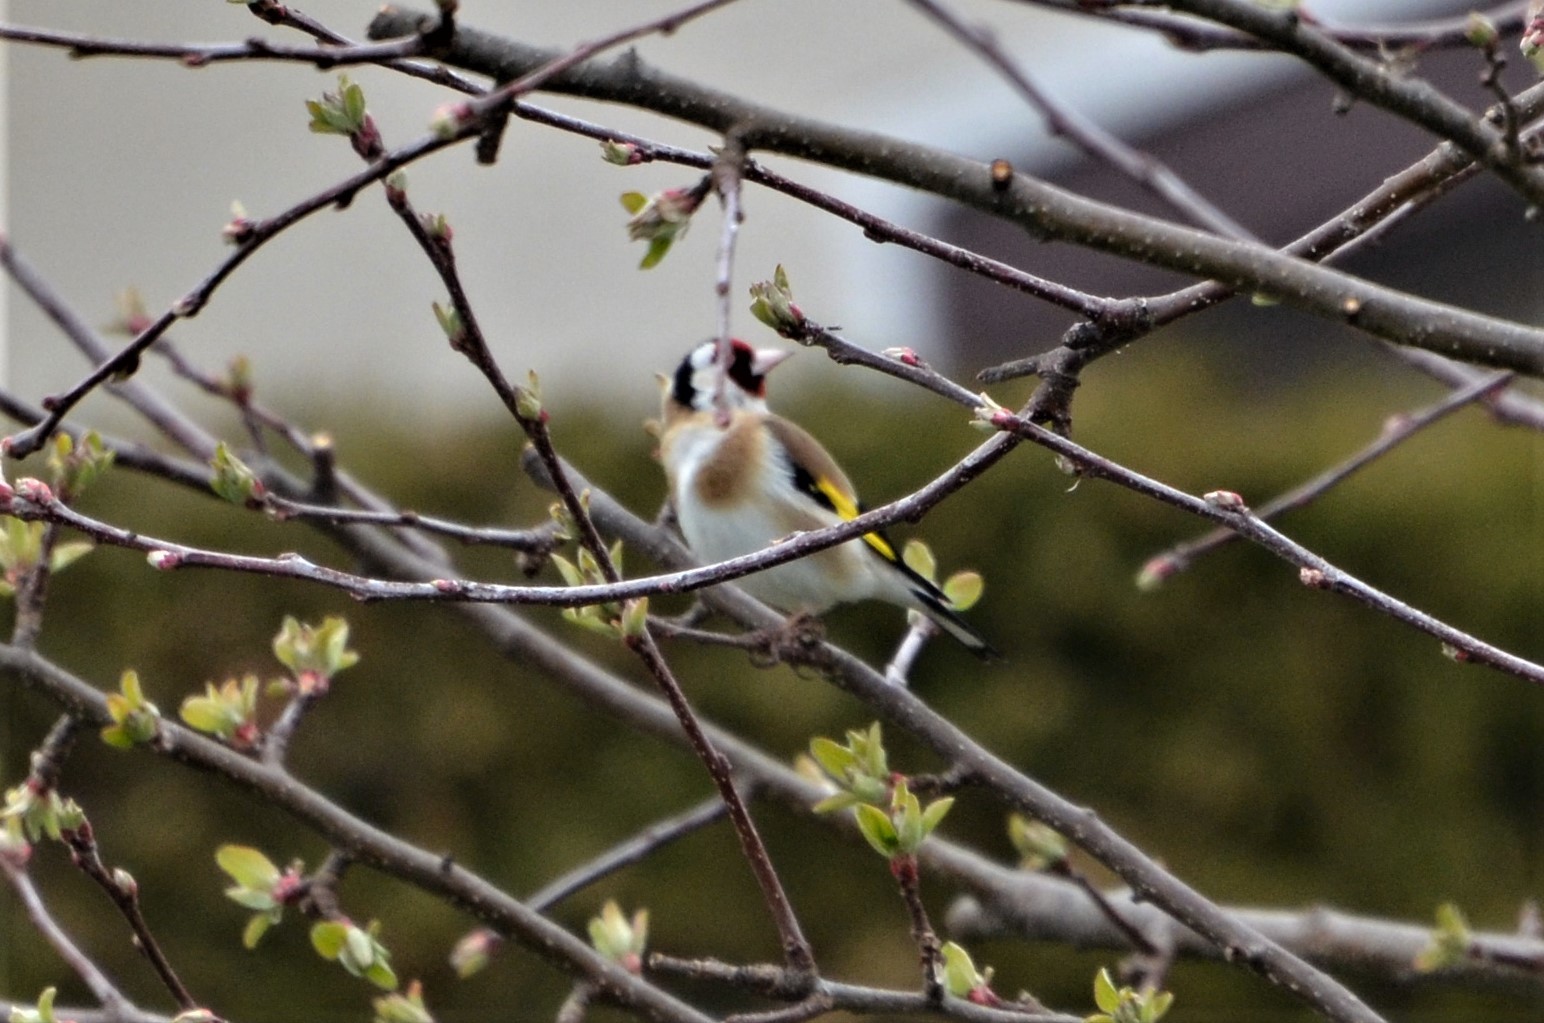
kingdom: Animalia
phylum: Chordata
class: Aves
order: Passeriformes
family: Fringillidae
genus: Carduelis
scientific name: Carduelis carduelis
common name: European goldfinch
